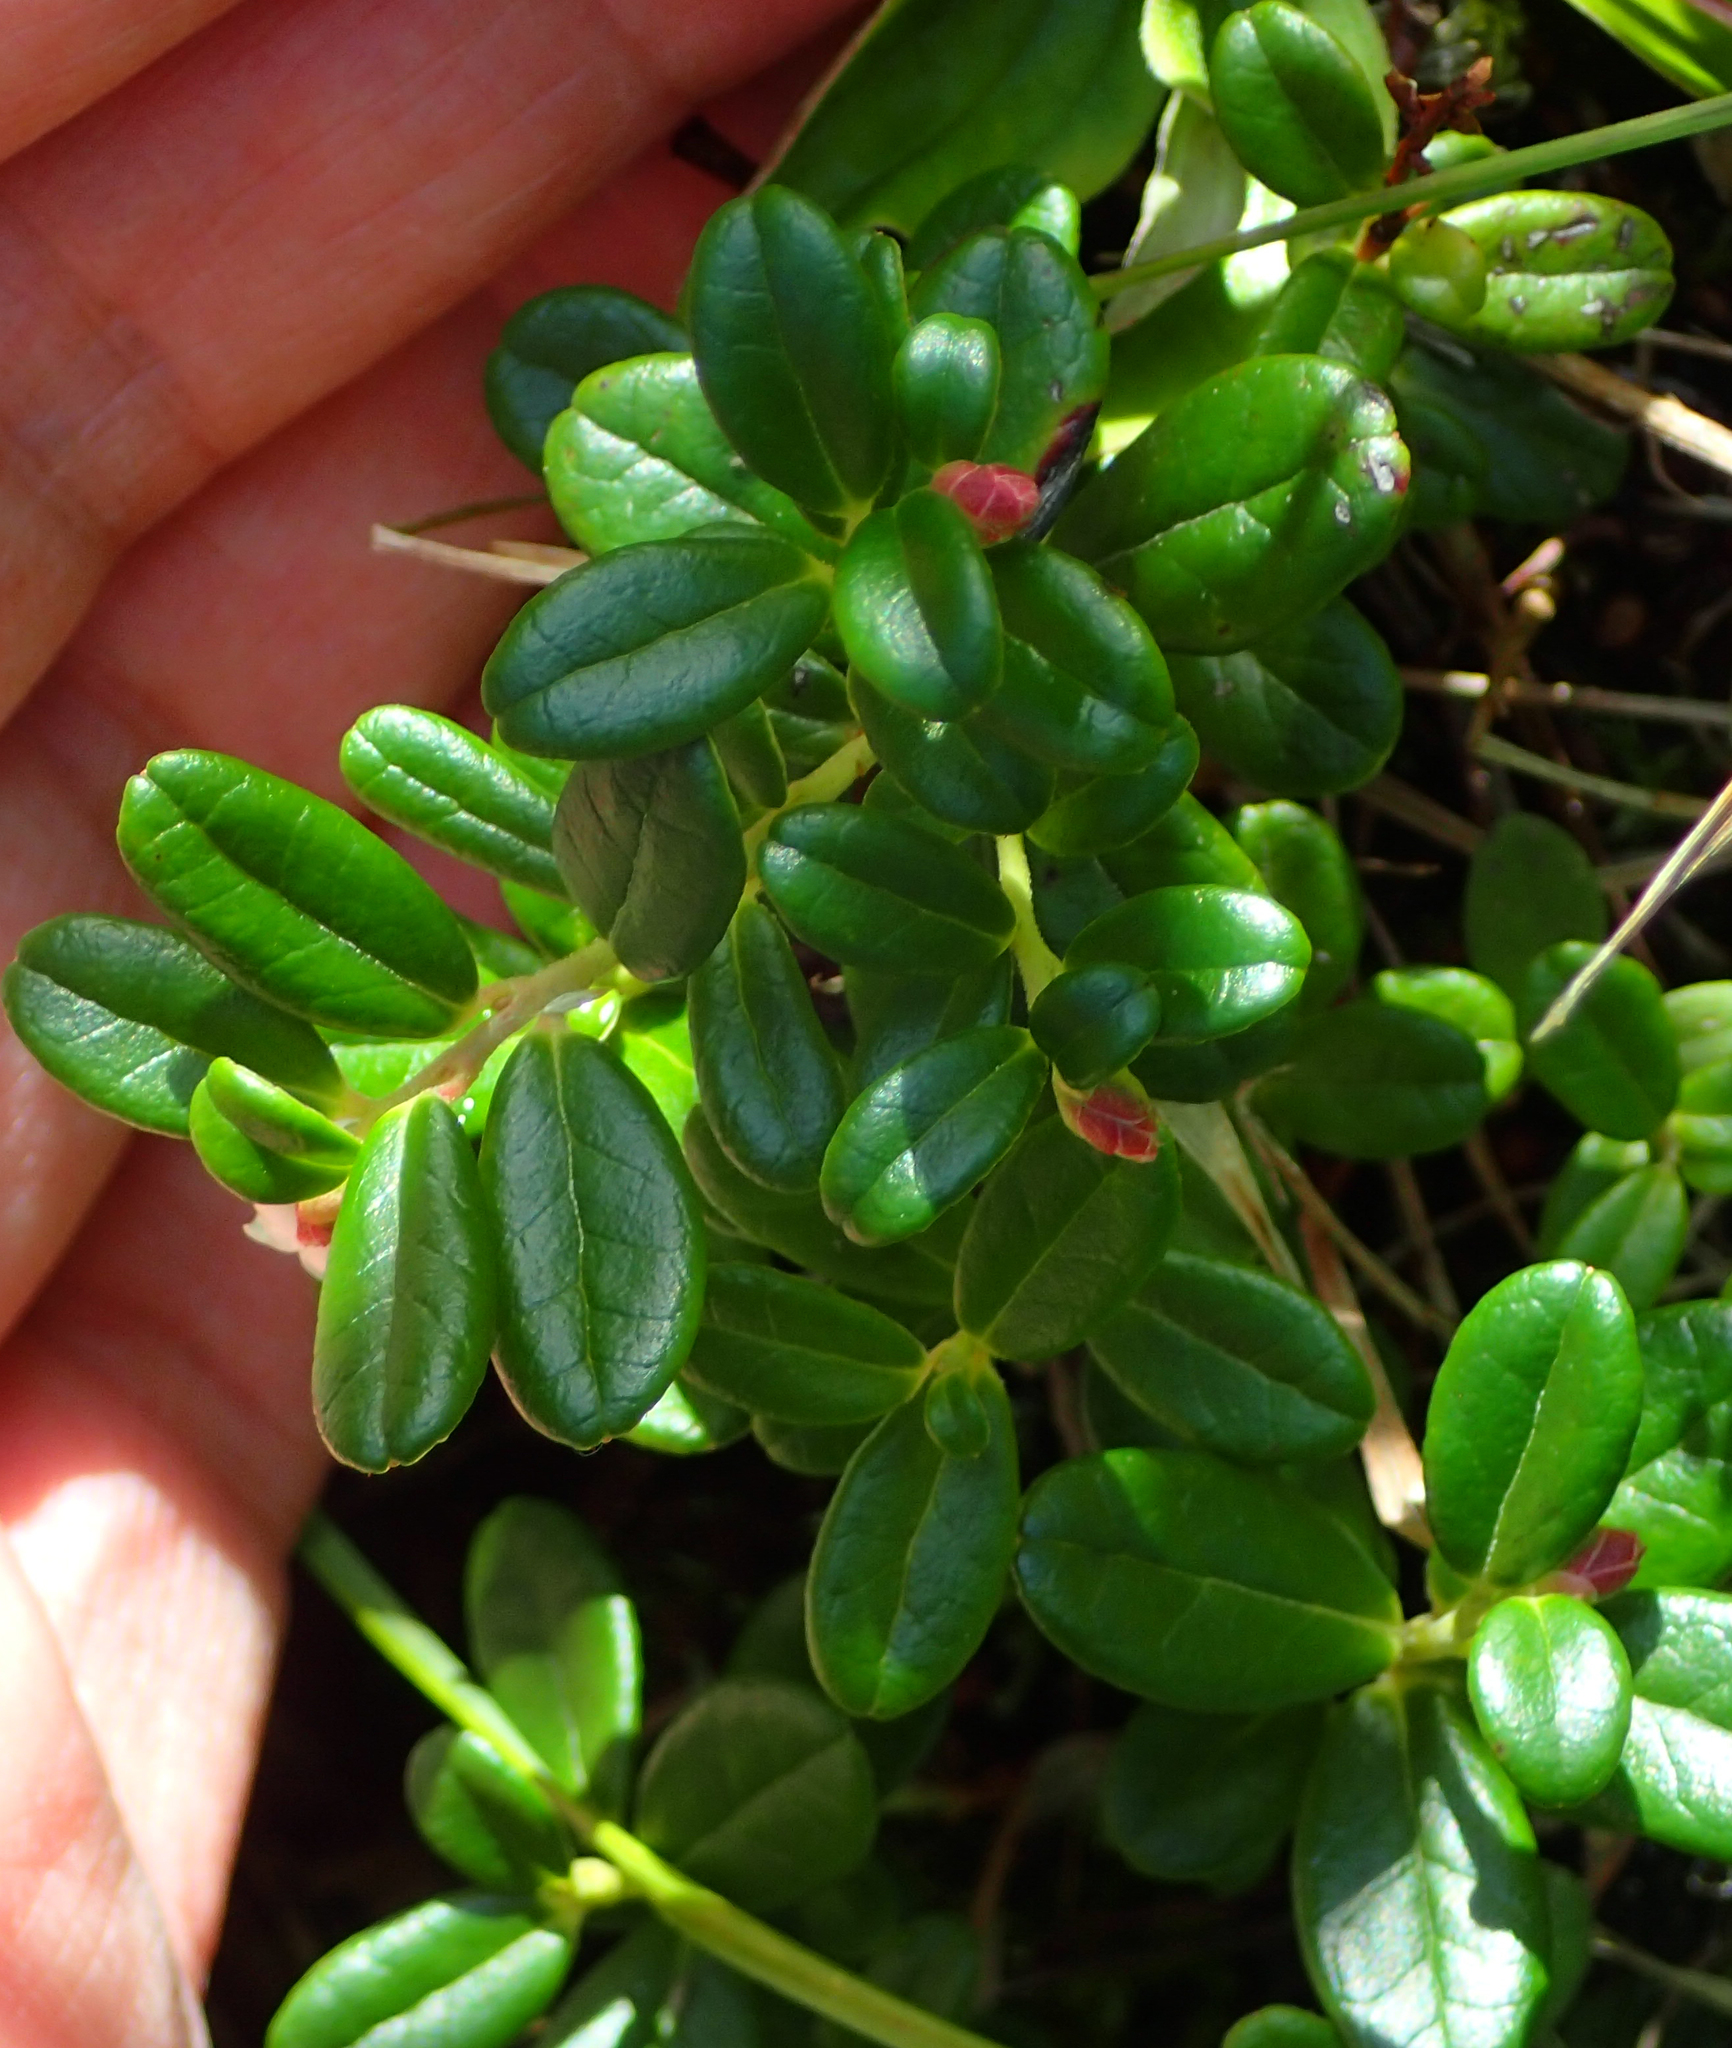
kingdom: Plantae
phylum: Tracheophyta
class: Magnoliopsida
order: Ericales
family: Ericaceae
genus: Vaccinium
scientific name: Vaccinium vitis-idaea
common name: Cowberry
